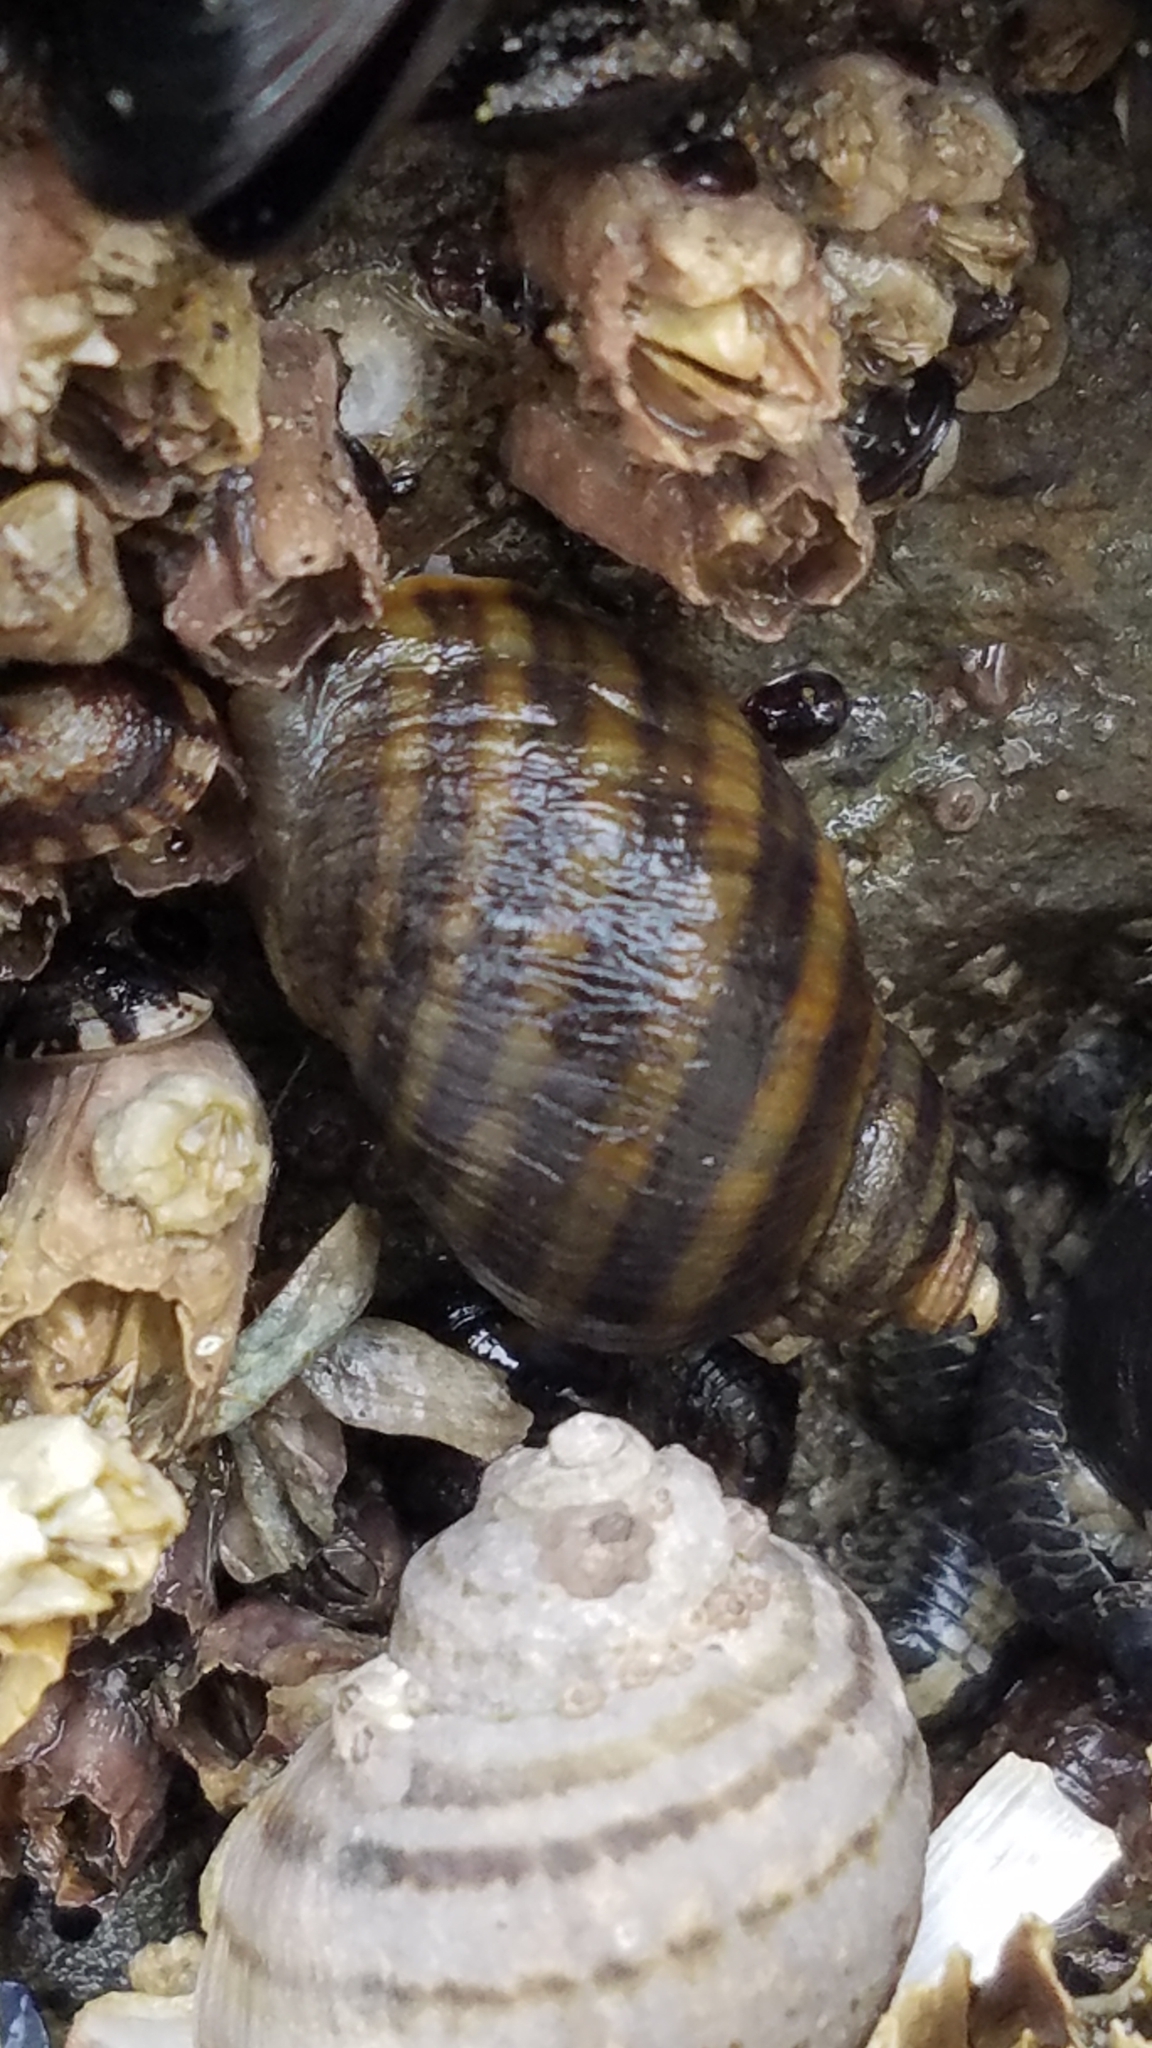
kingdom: Animalia
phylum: Mollusca
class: Gastropoda
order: Neogastropoda
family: Muricidae
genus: Nucella
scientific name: Nucella ostrina
